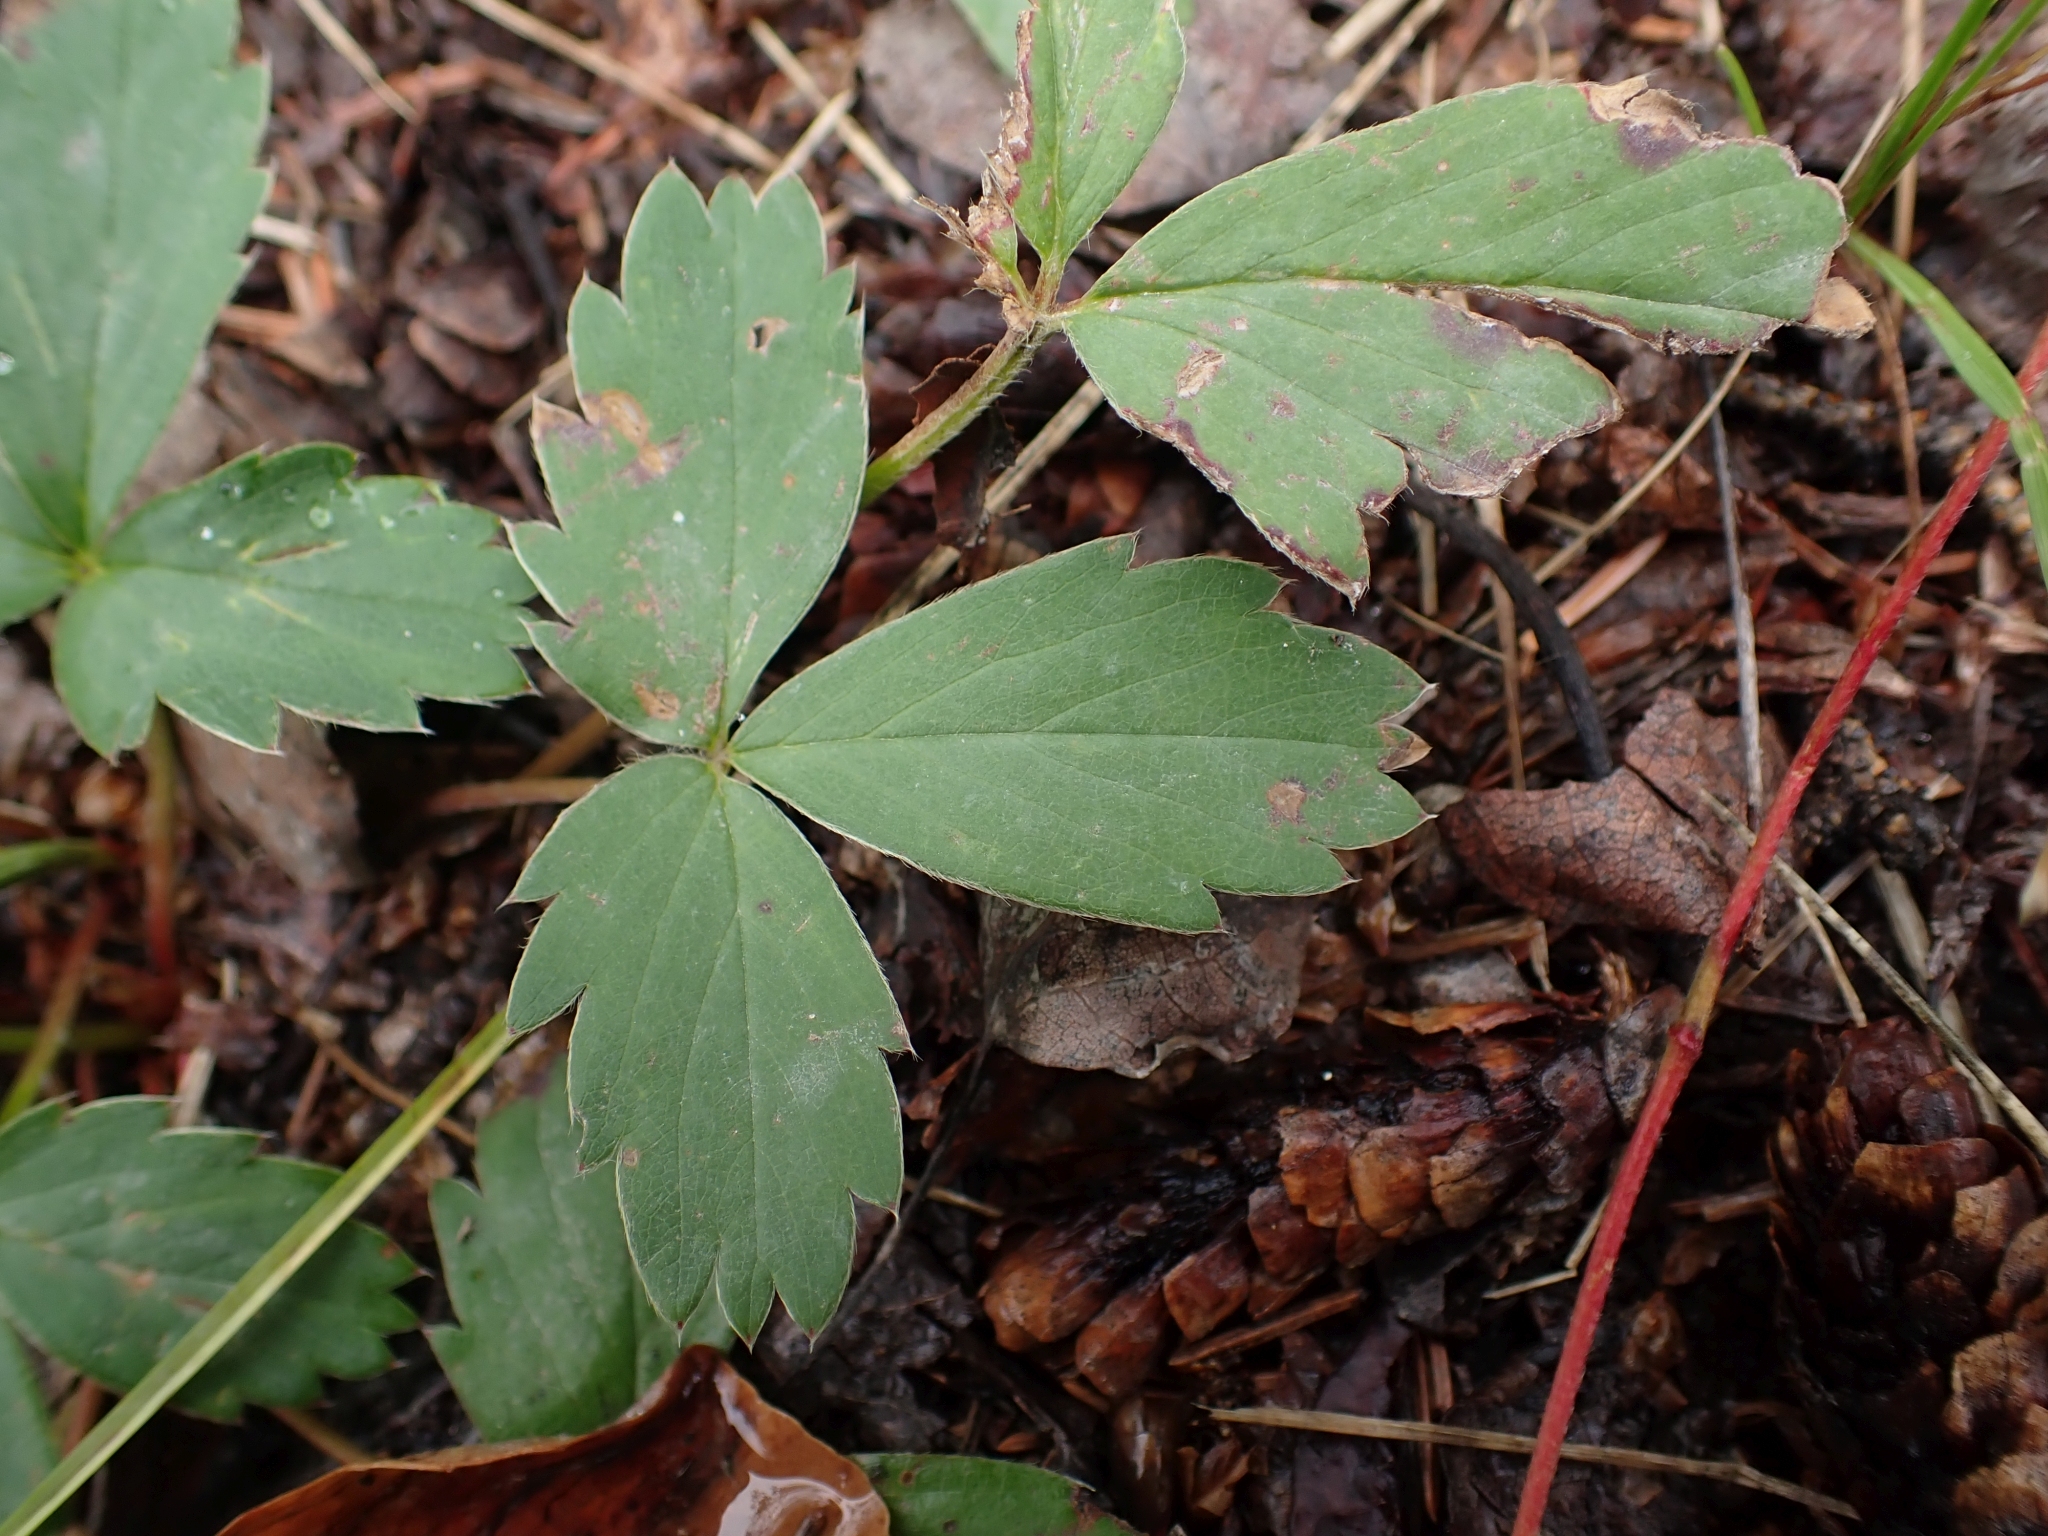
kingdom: Plantae
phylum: Tracheophyta
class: Magnoliopsida
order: Rosales
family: Rosaceae
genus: Fragaria
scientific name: Fragaria virginiana
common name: Thickleaved wild strawberry
